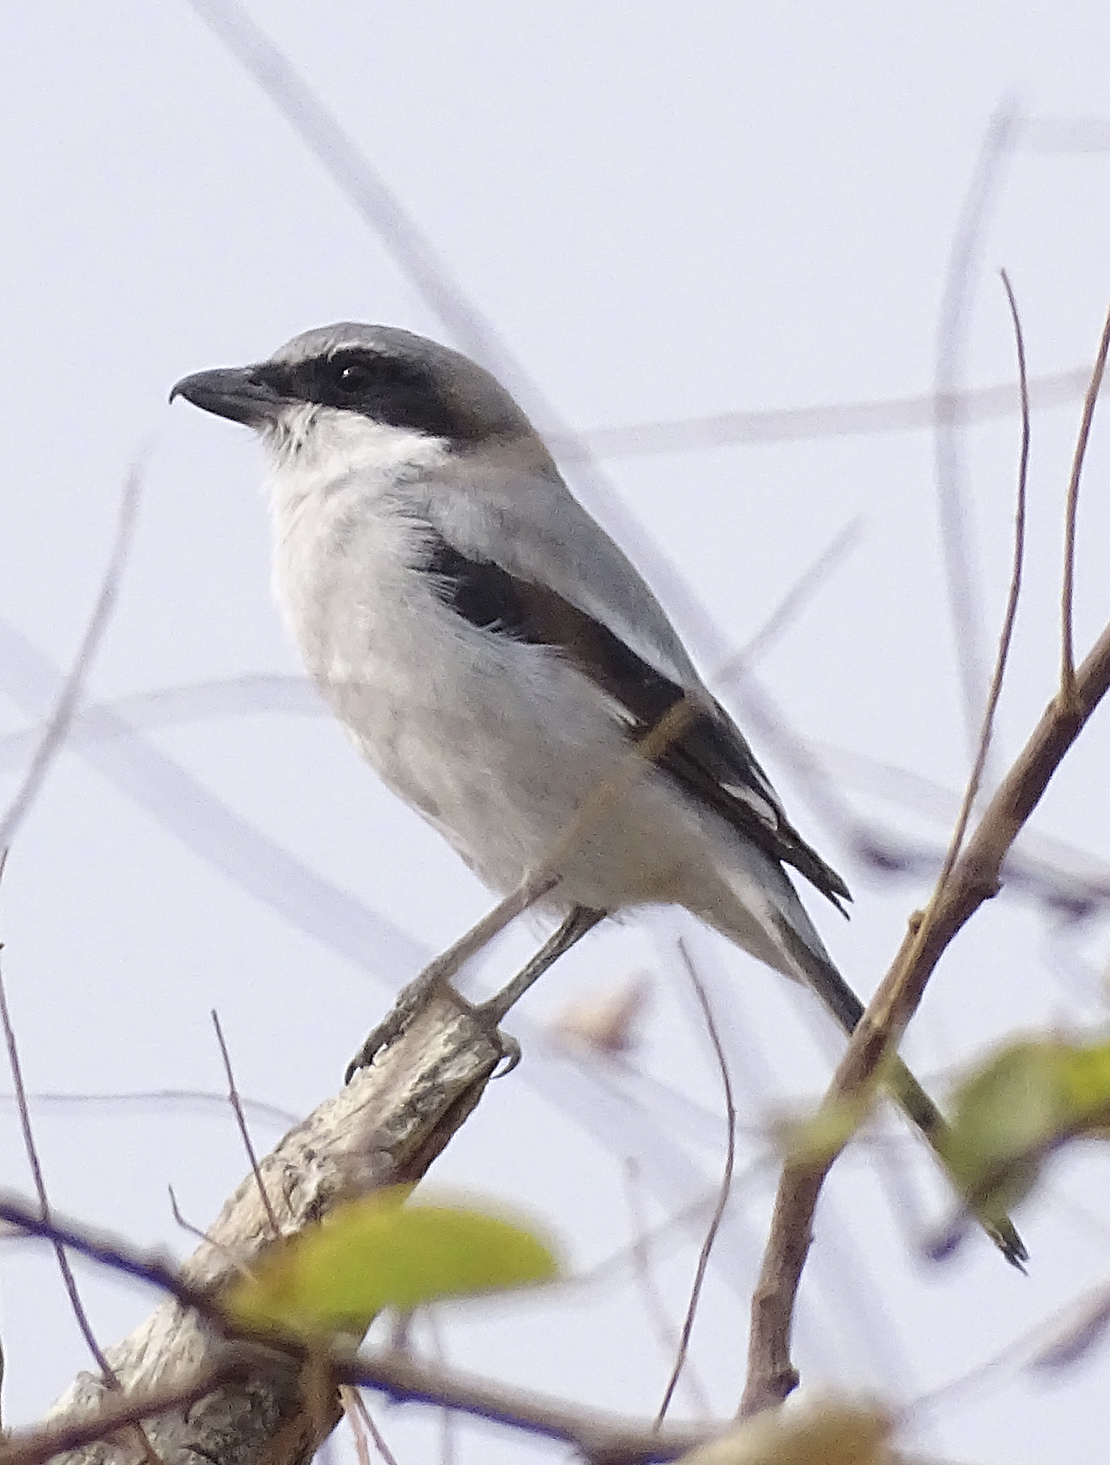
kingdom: Animalia
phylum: Chordata
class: Aves
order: Passeriformes
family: Laniidae
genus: Lanius
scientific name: Lanius ludovicianus
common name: Loggerhead shrike
